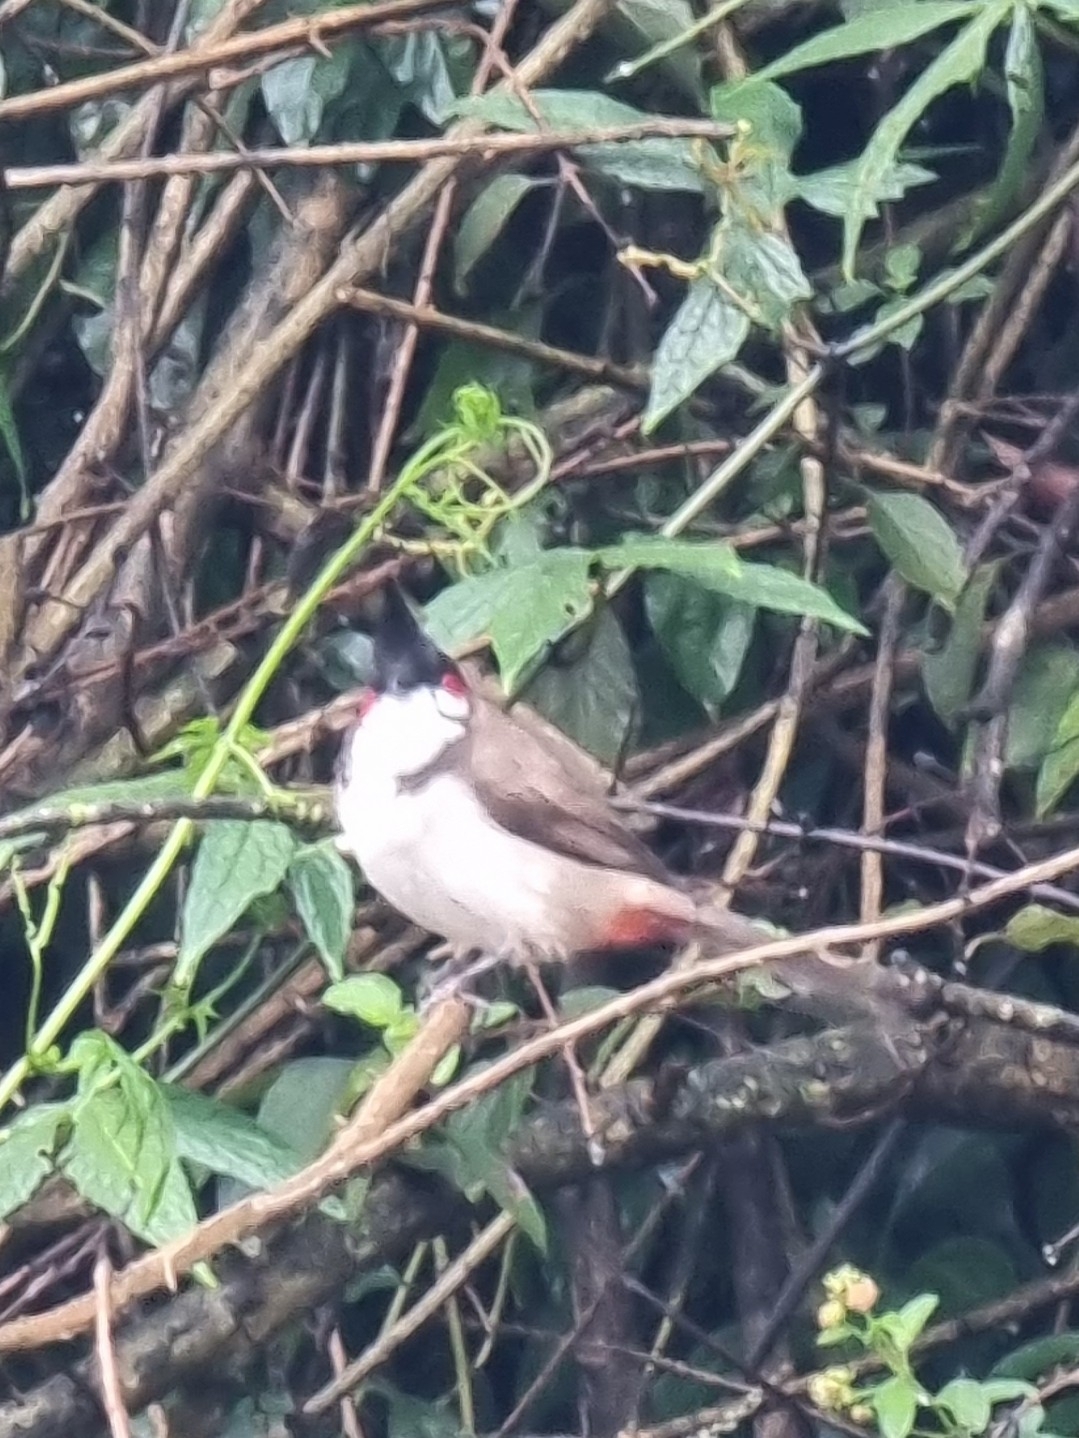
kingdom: Animalia
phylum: Chordata
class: Aves
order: Passeriformes
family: Pycnonotidae
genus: Pycnonotus
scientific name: Pycnonotus jocosus
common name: Red-whiskered bulbul
